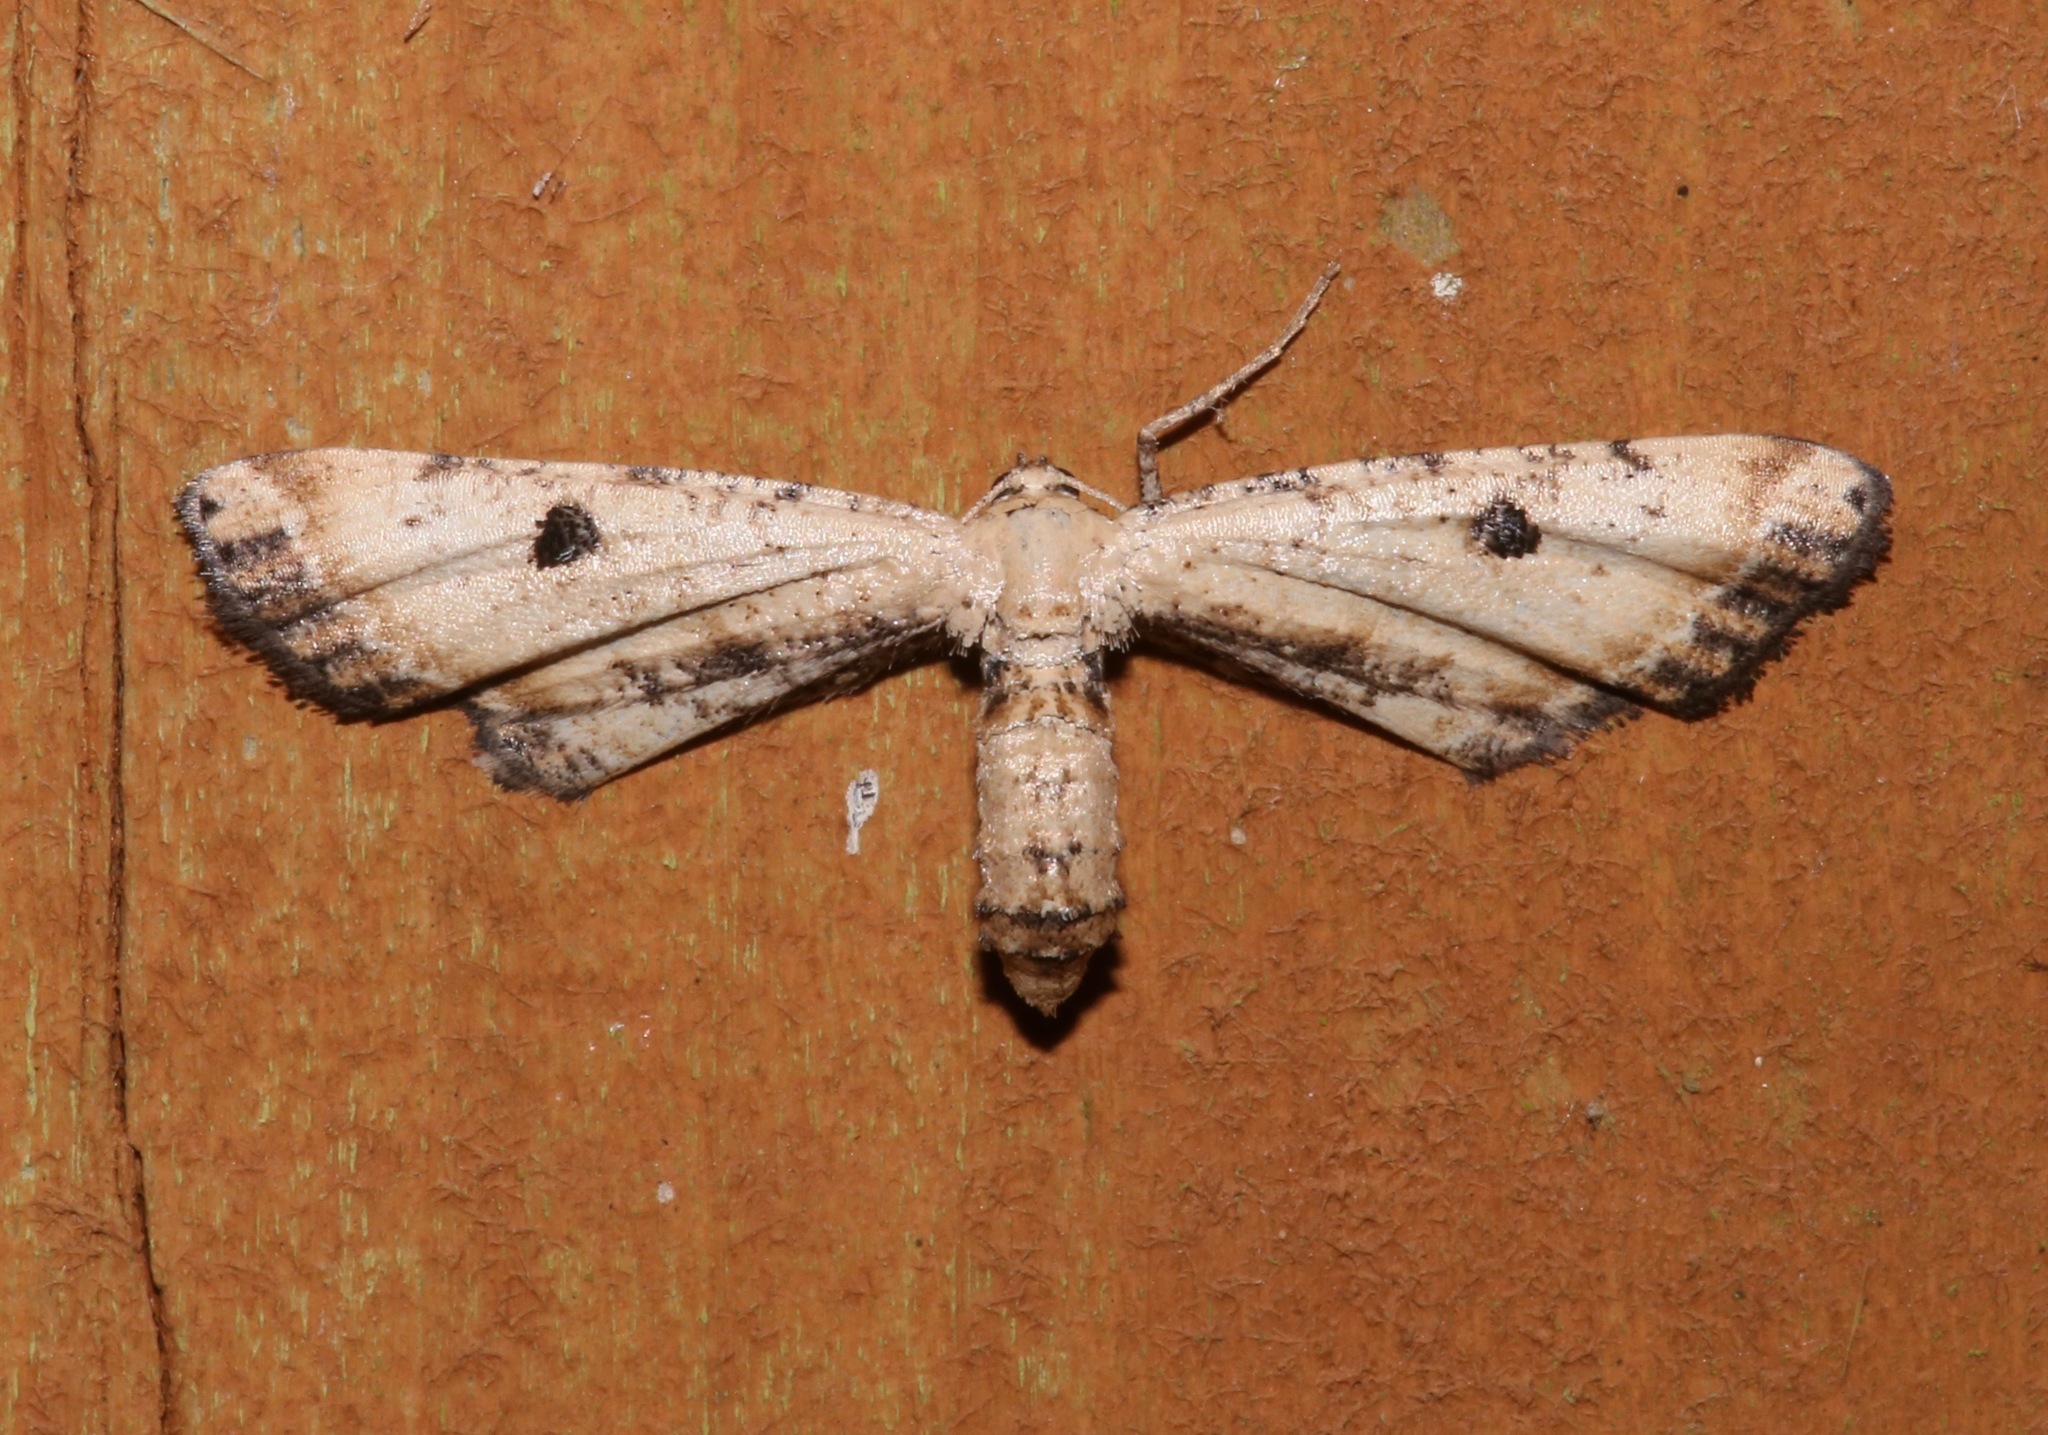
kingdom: Animalia
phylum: Arthropoda
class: Insecta
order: Lepidoptera
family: Geometridae
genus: Tornos
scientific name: Tornos scolopacinaria
